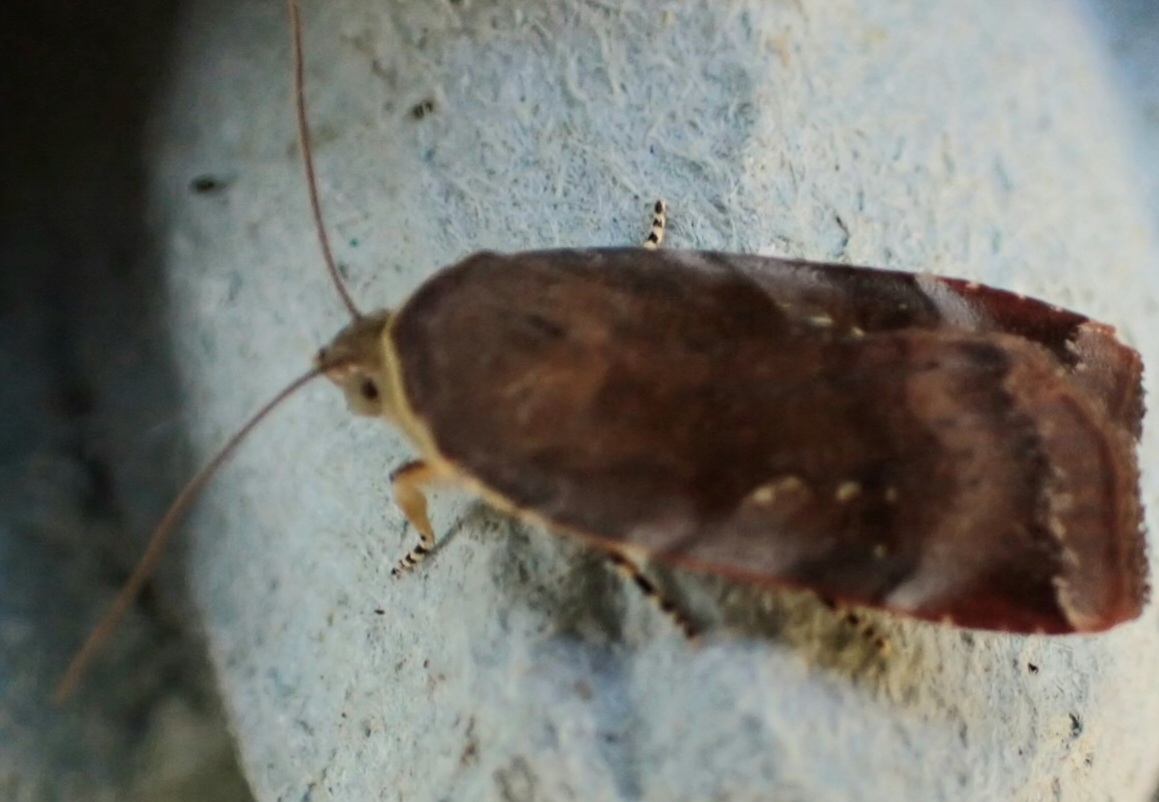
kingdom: Animalia
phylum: Arthropoda
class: Insecta
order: Lepidoptera
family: Noctuidae
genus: Noctua
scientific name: Noctua janthe
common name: Lesser broad-bordered yellow underwing
